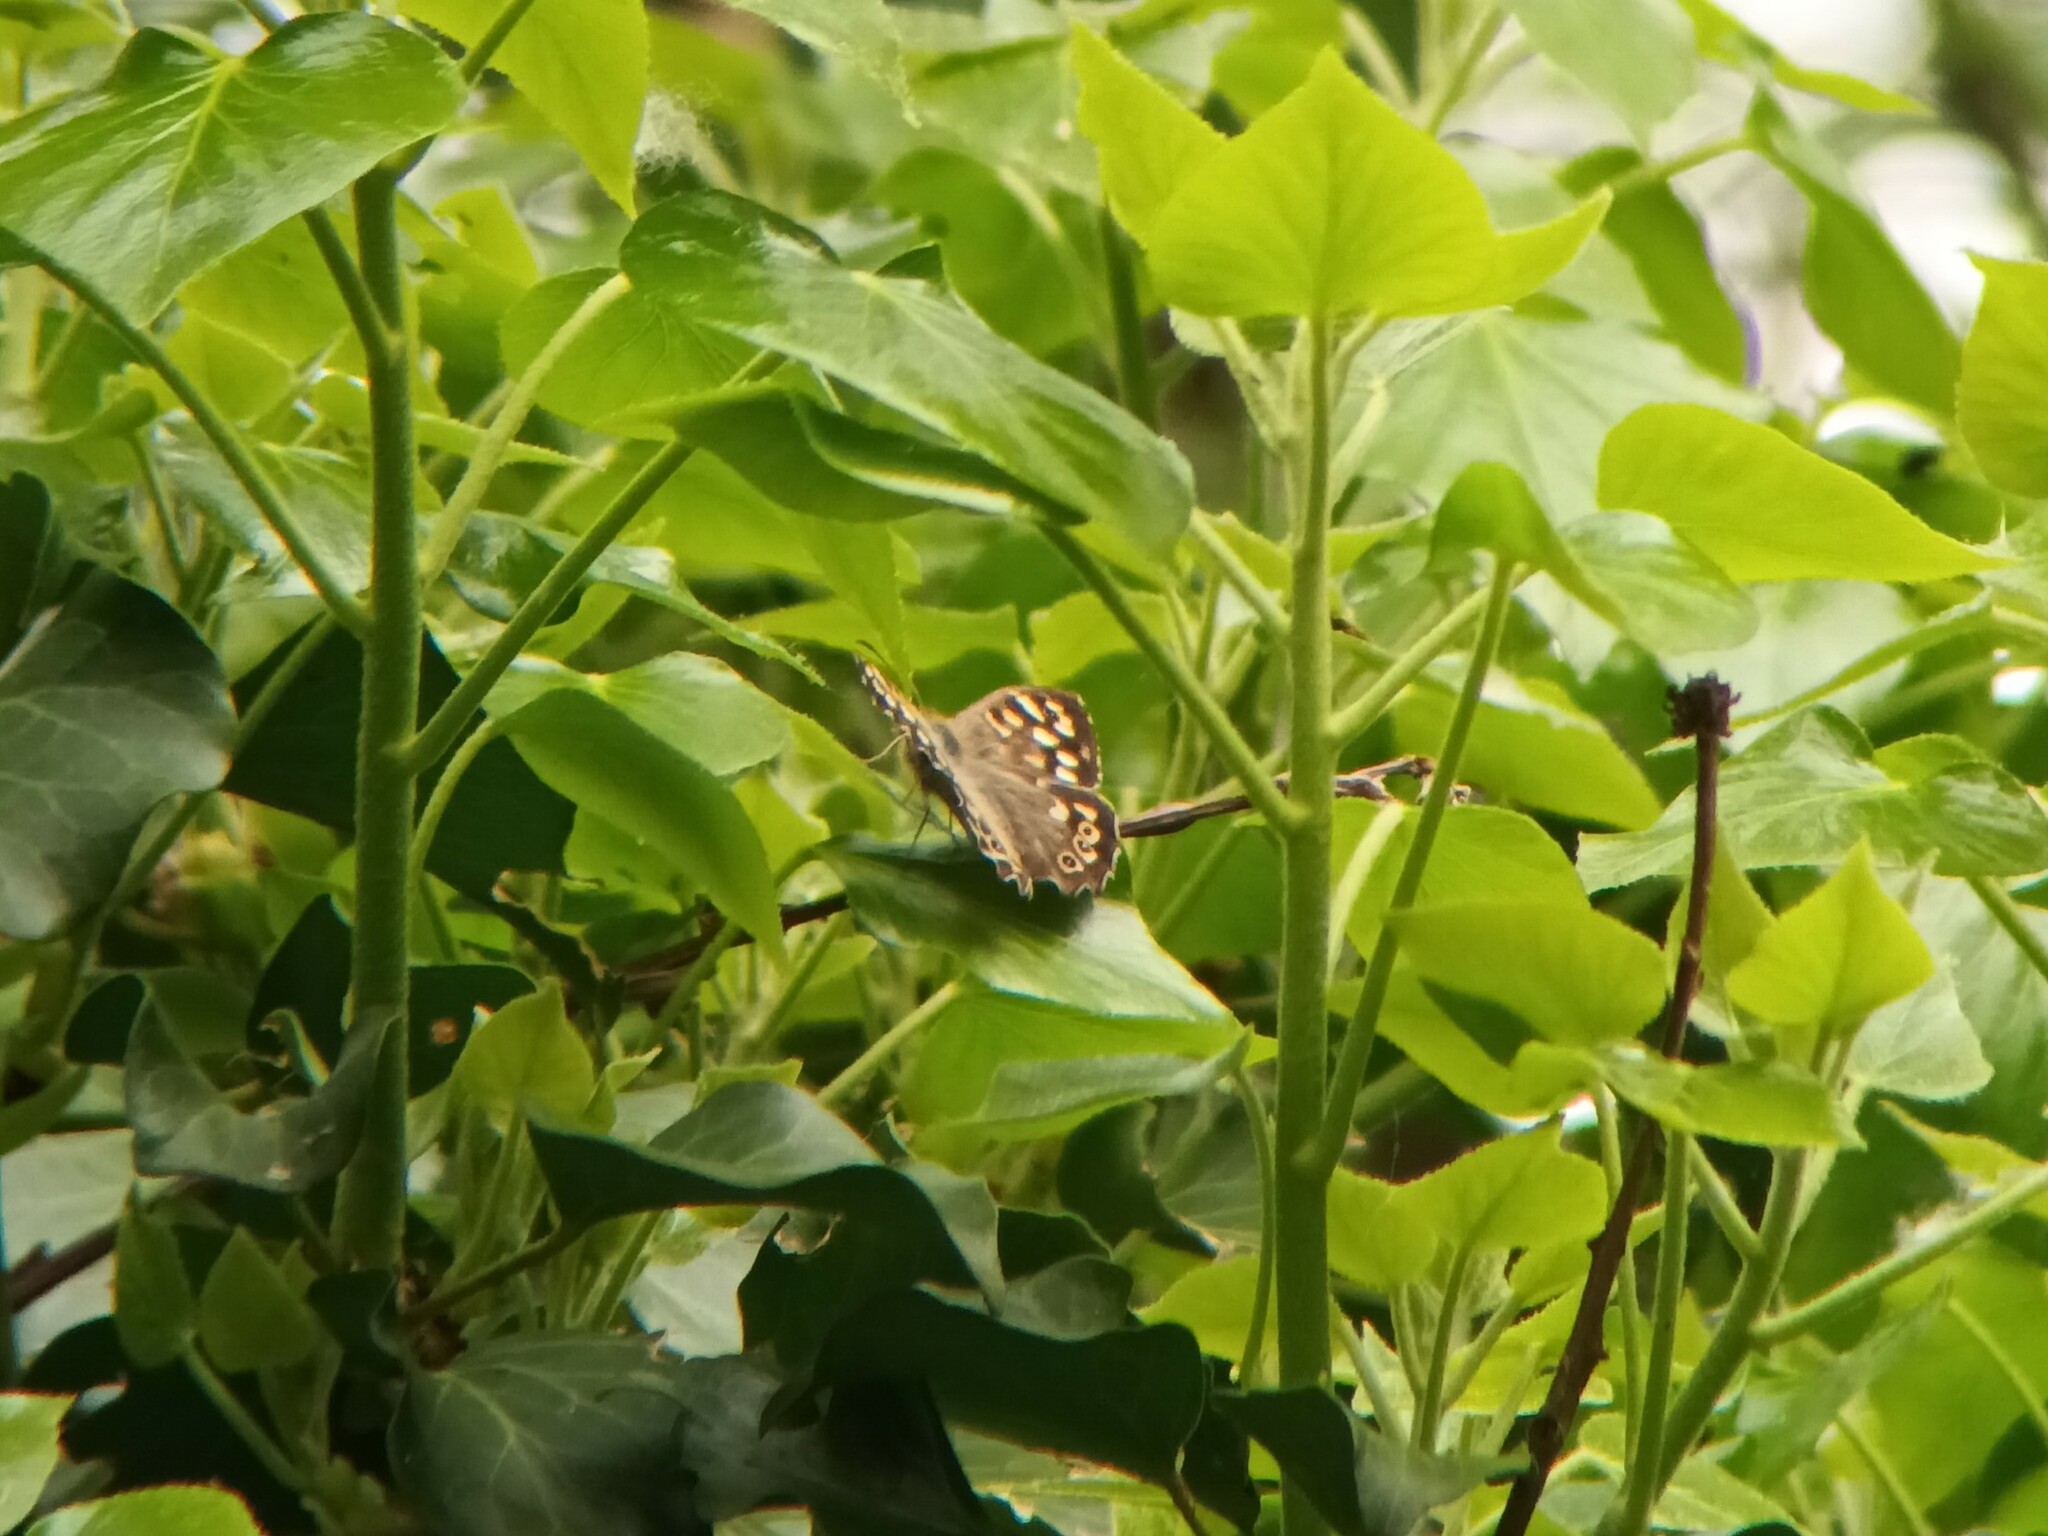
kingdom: Animalia
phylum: Arthropoda
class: Insecta
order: Lepidoptera
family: Nymphalidae
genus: Pararge
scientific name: Pararge aegeria
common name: Speckled wood
